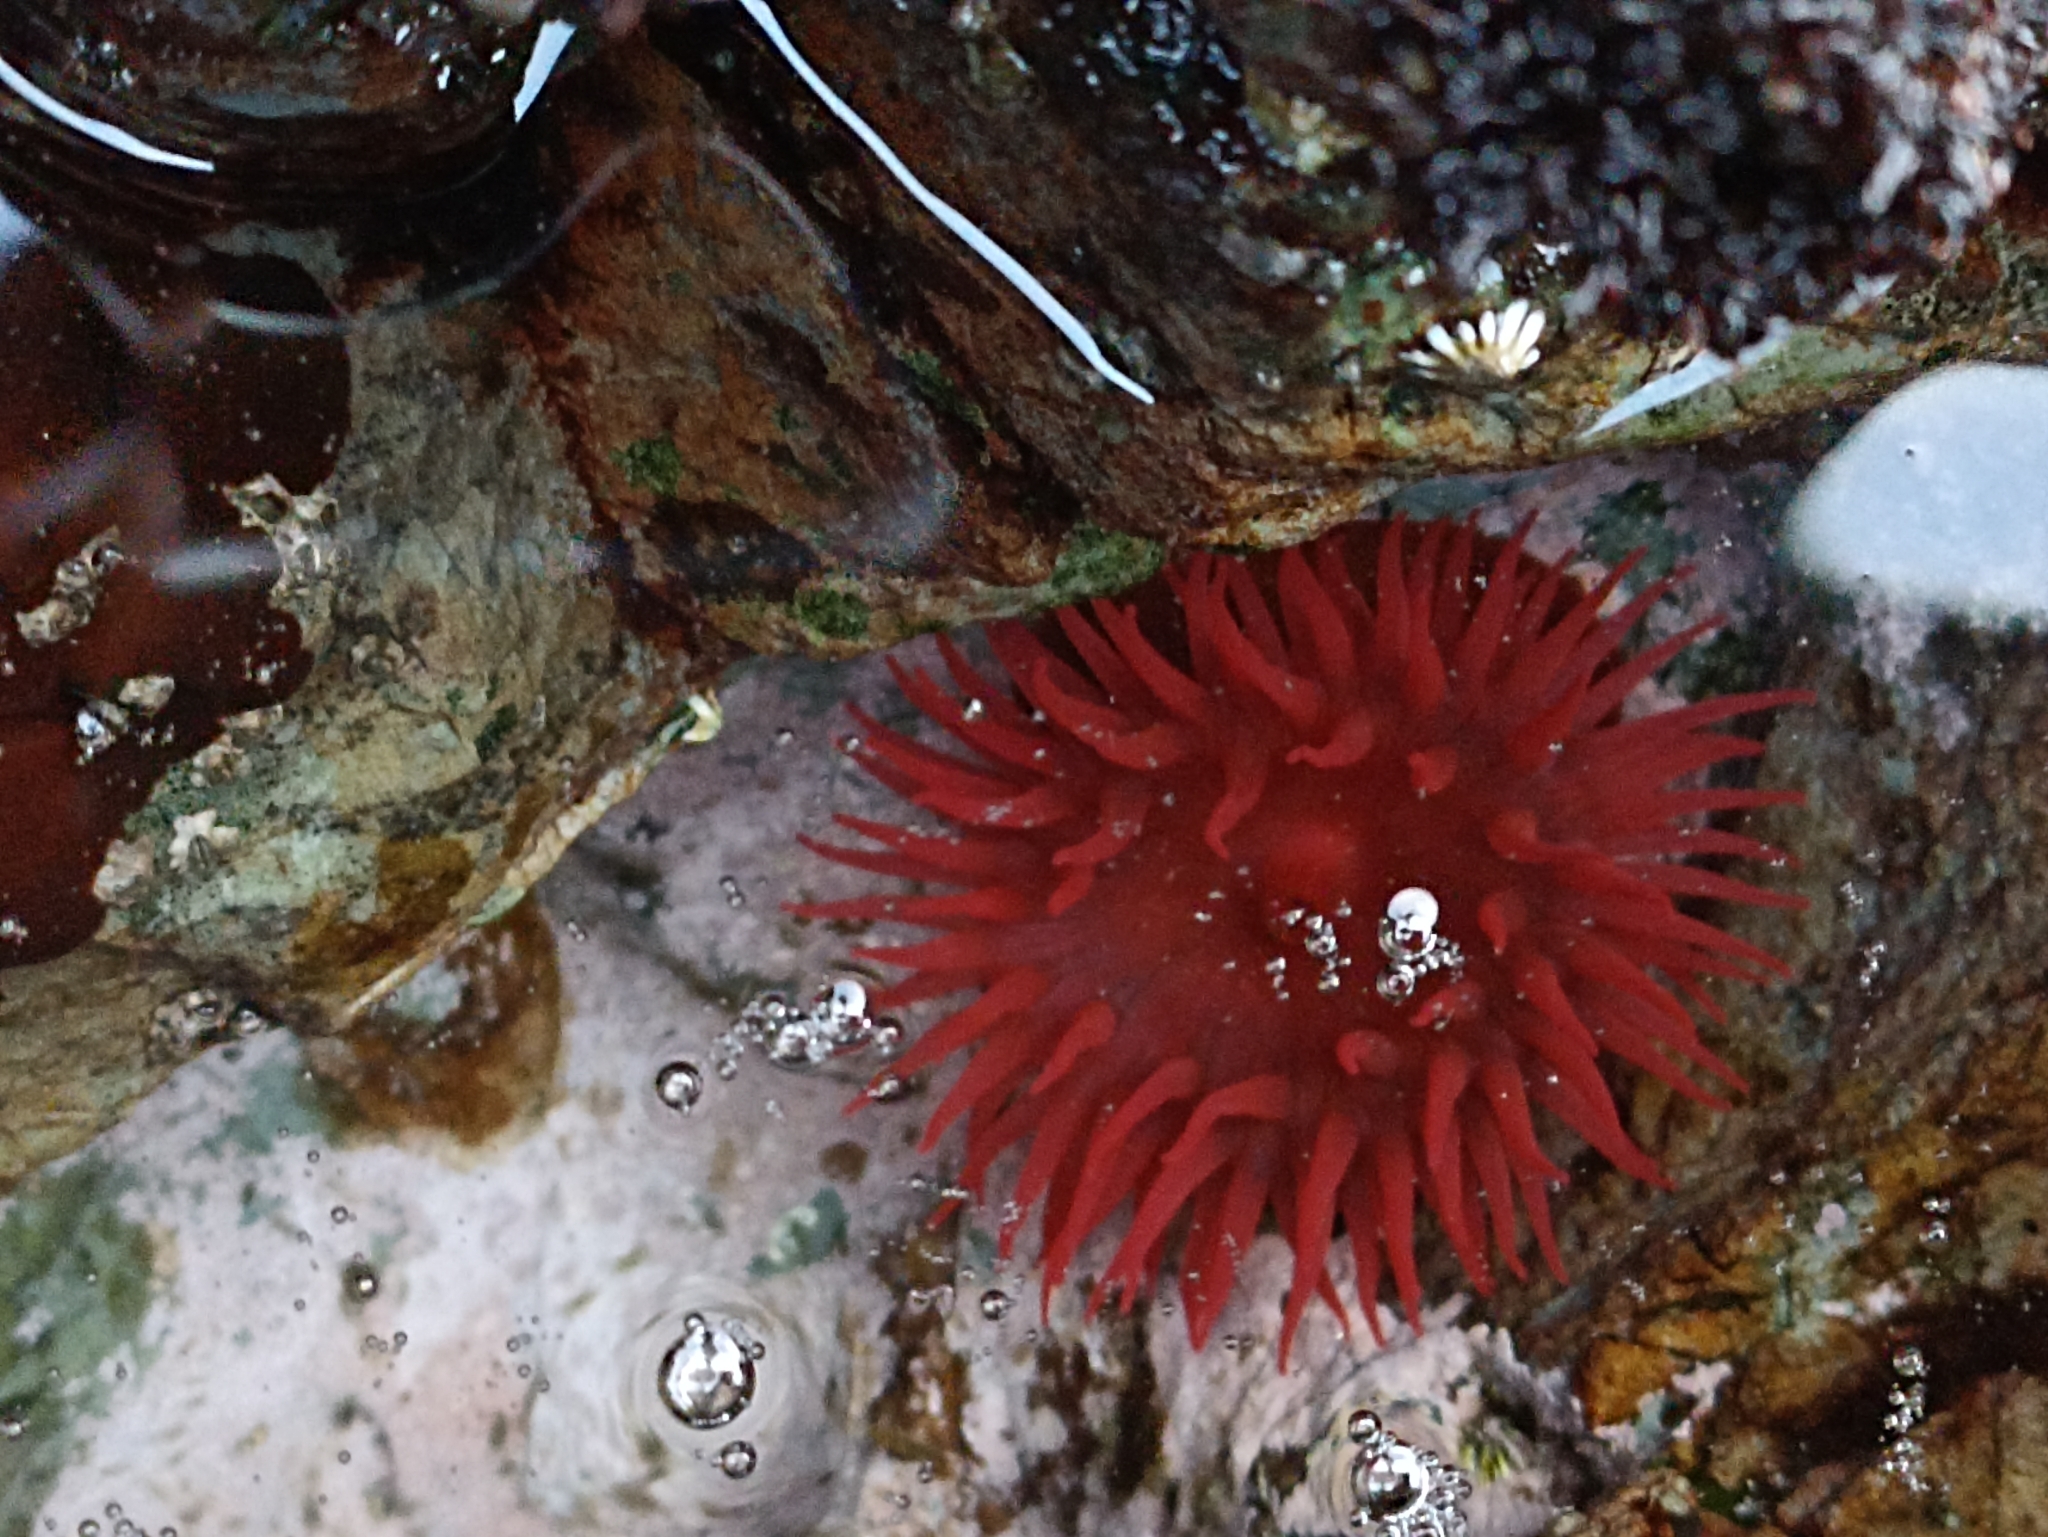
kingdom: Animalia
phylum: Cnidaria
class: Anthozoa
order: Actiniaria
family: Actiniidae
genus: Actinia
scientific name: Actinia tenebrosa
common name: Waratah anemone
